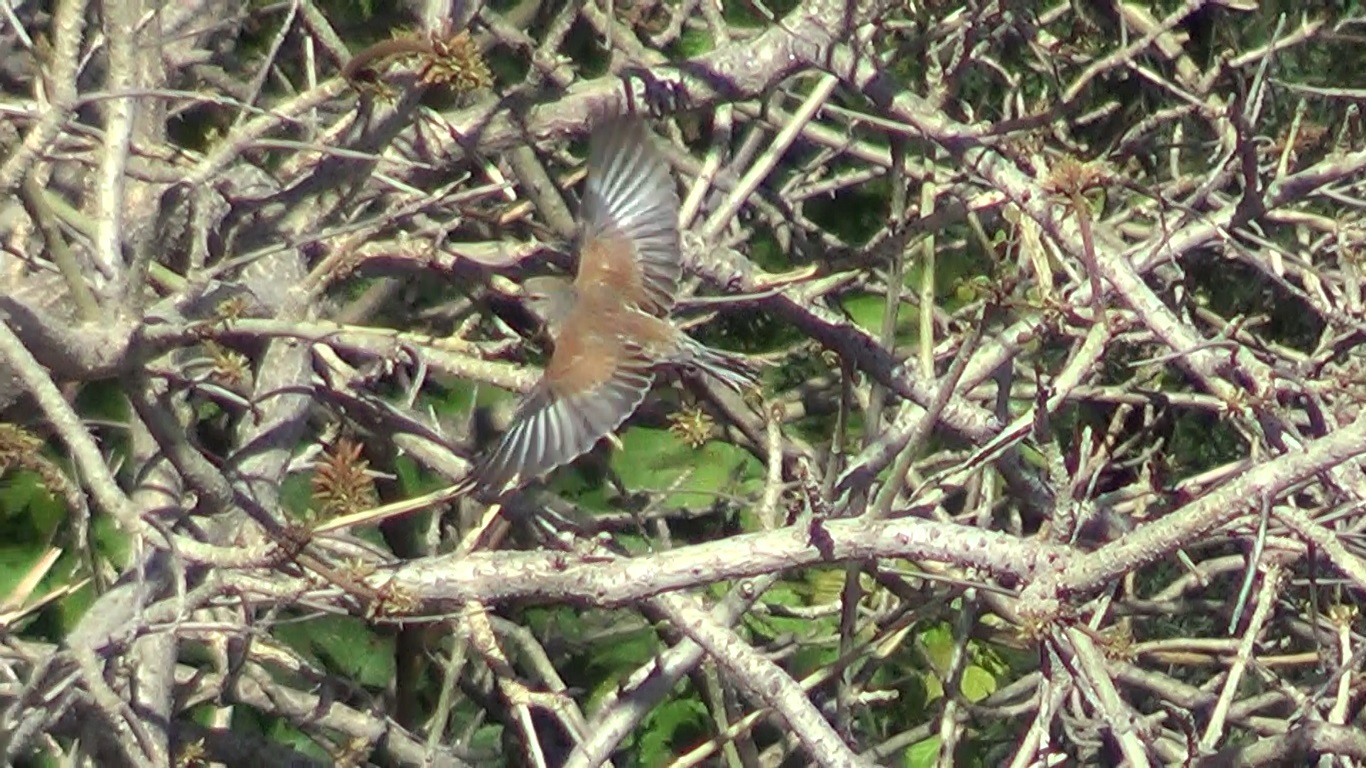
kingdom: Animalia
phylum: Chordata
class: Aves
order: Passeriformes
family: Fringillidae
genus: Linaria
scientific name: Linaria cannabina
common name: Common linnet
